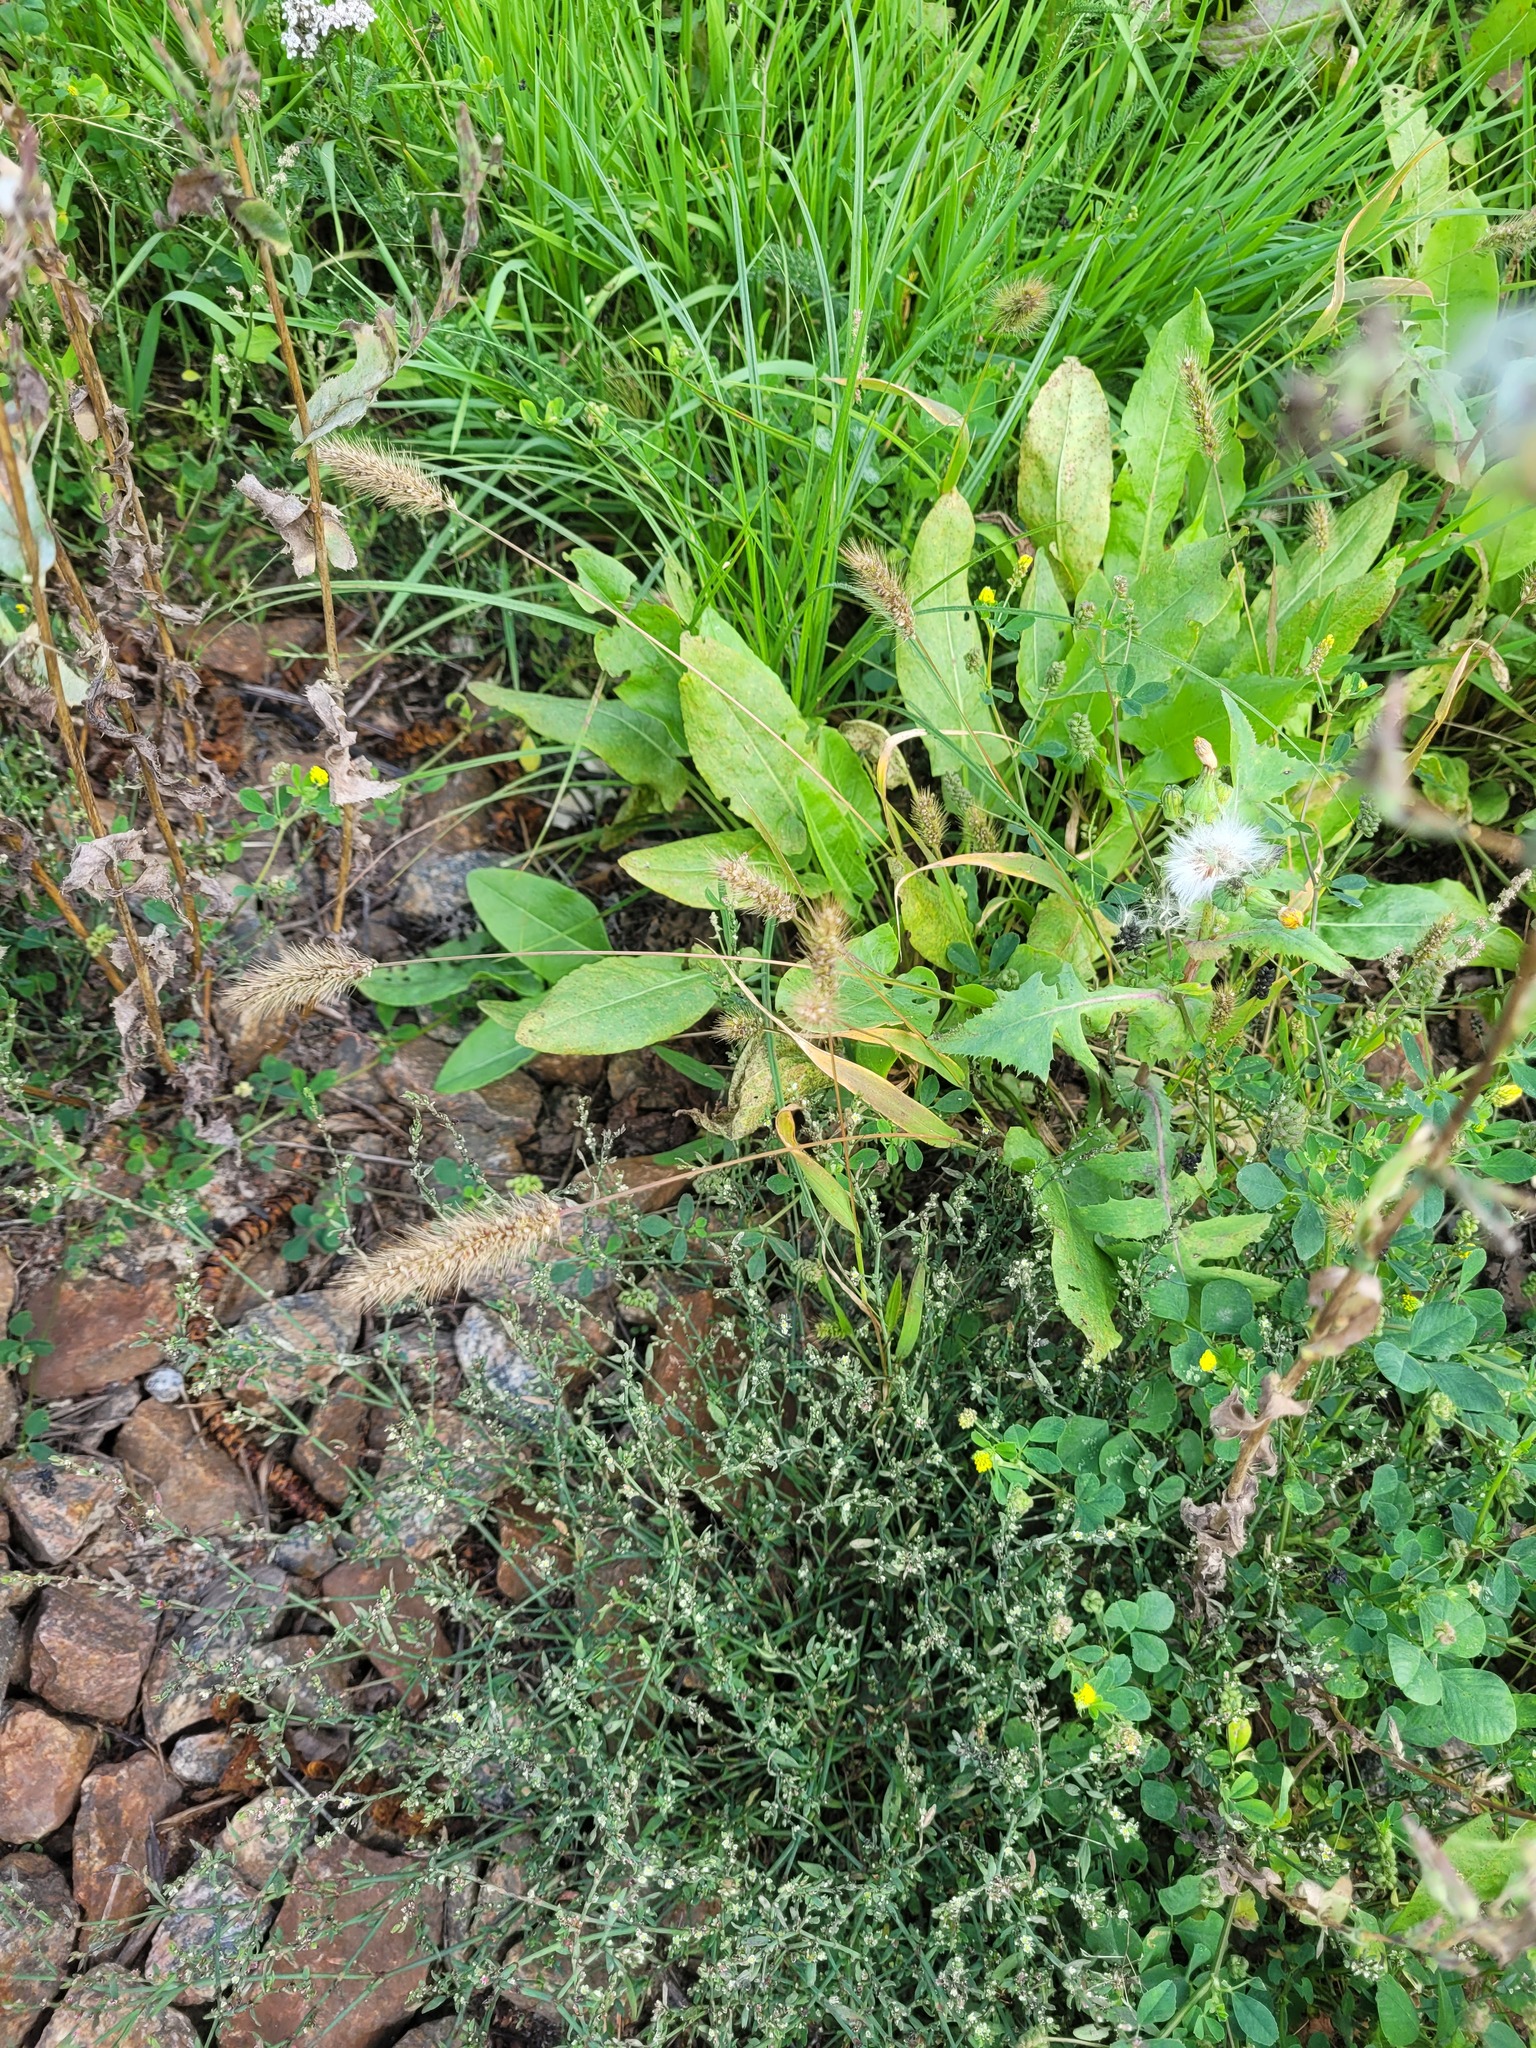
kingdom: Plantae
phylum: Tracheophyta
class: Liliopsida
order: Poales
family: Poaceae
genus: Setaria
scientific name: Setaria viridis
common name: Green bristlegrass
